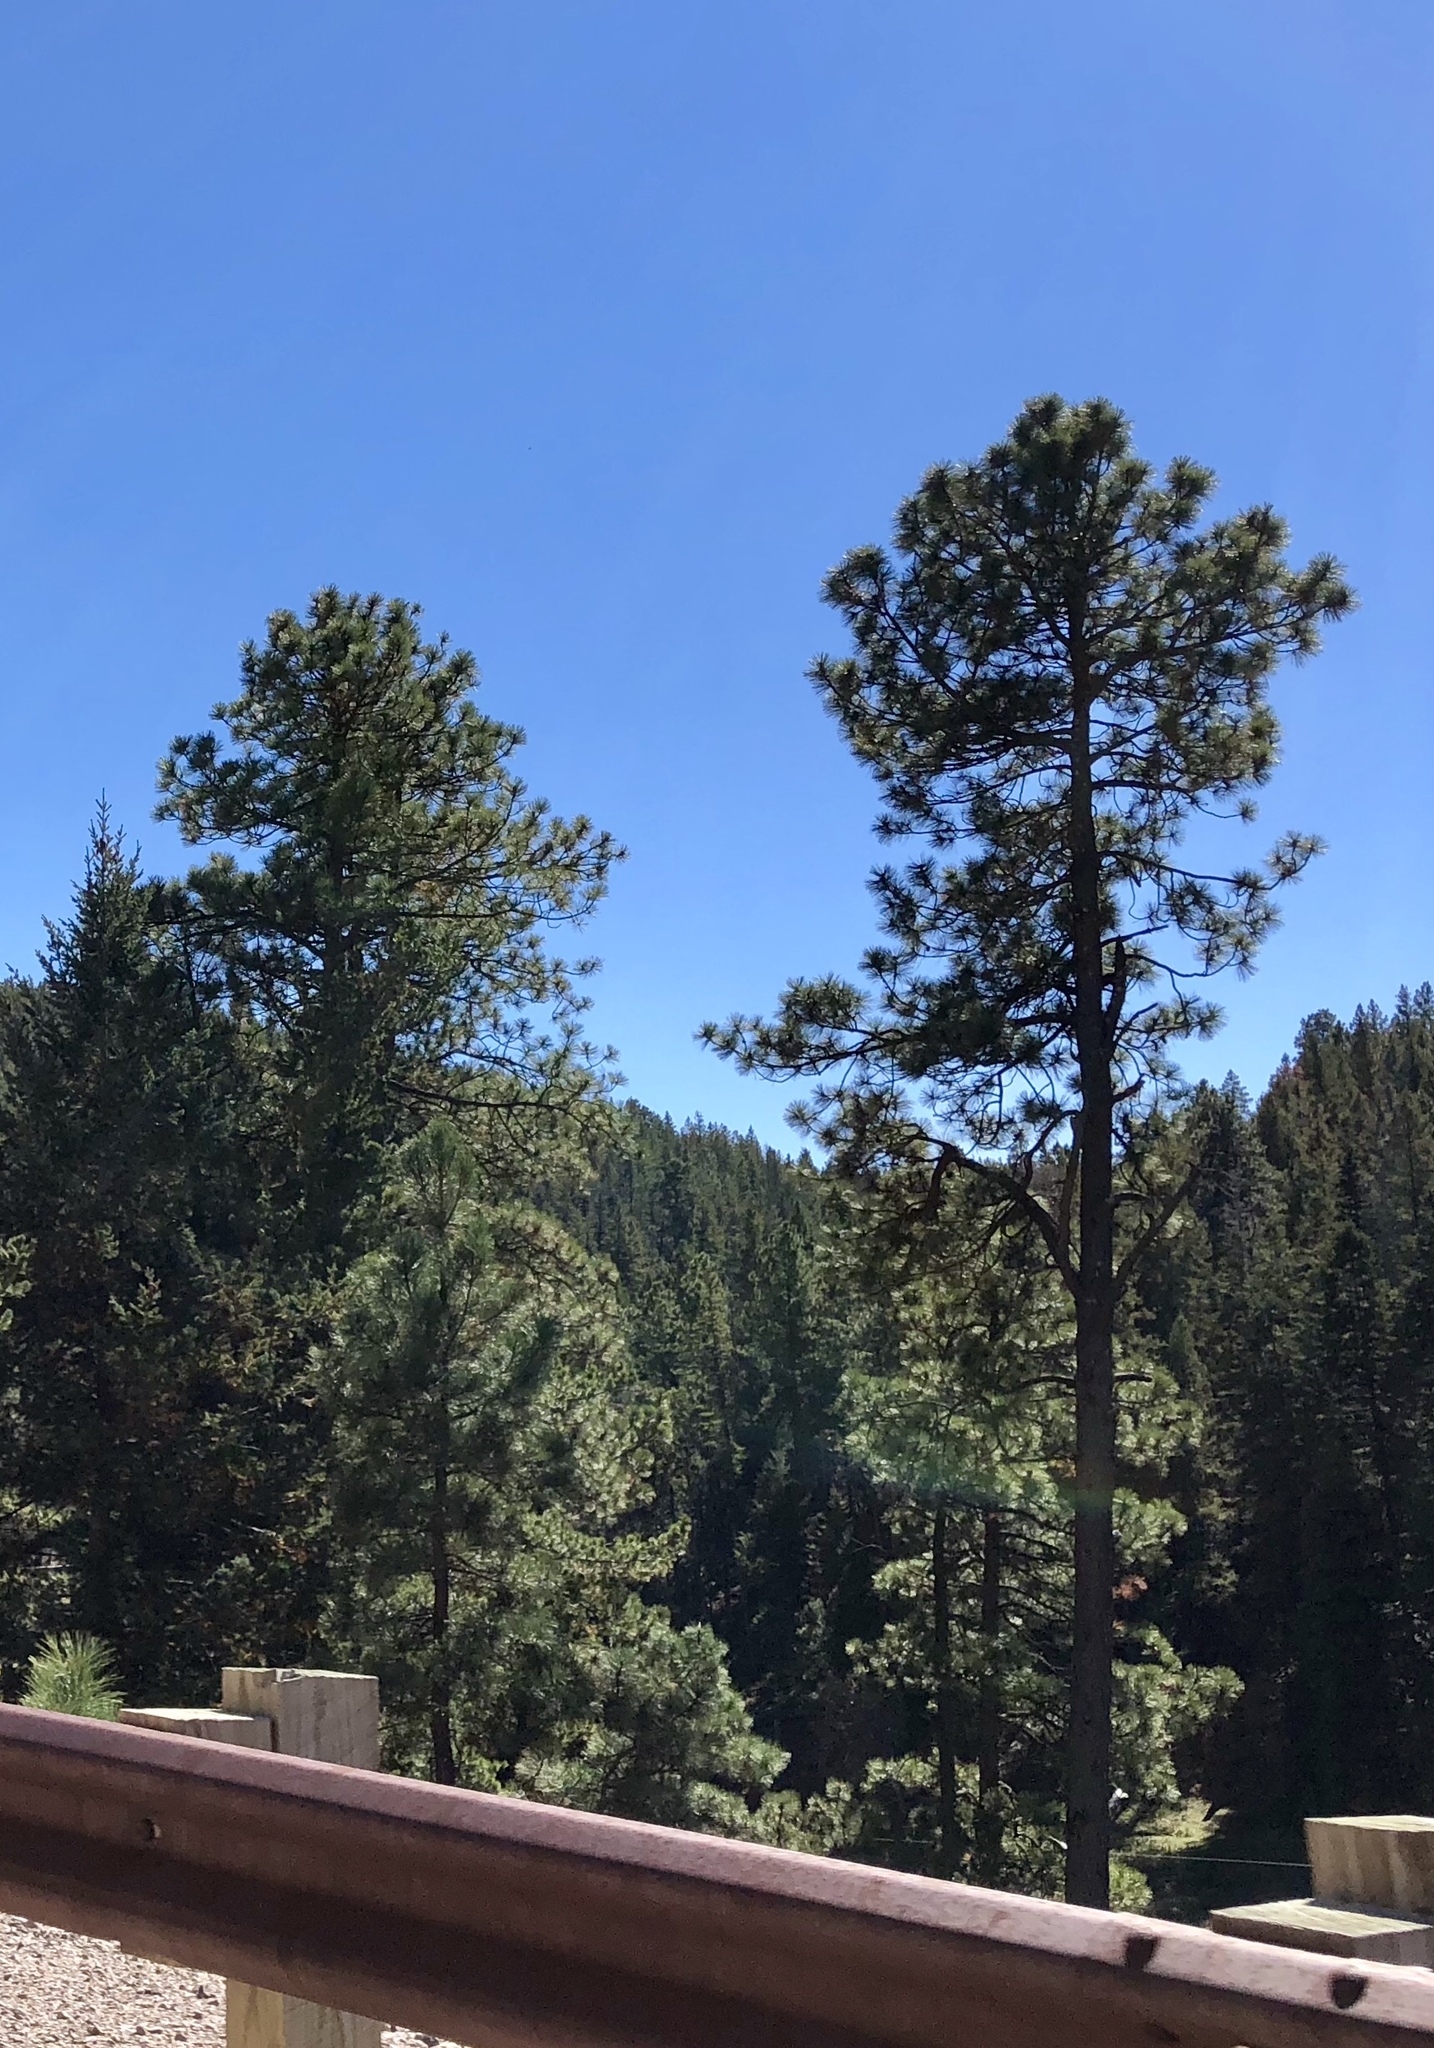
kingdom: Plantae
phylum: Tracheophyta
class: Pinopsida
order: Pinales
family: Pinaceae
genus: Pinus
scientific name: Pinus ponderosa
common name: Western yellow-pine
